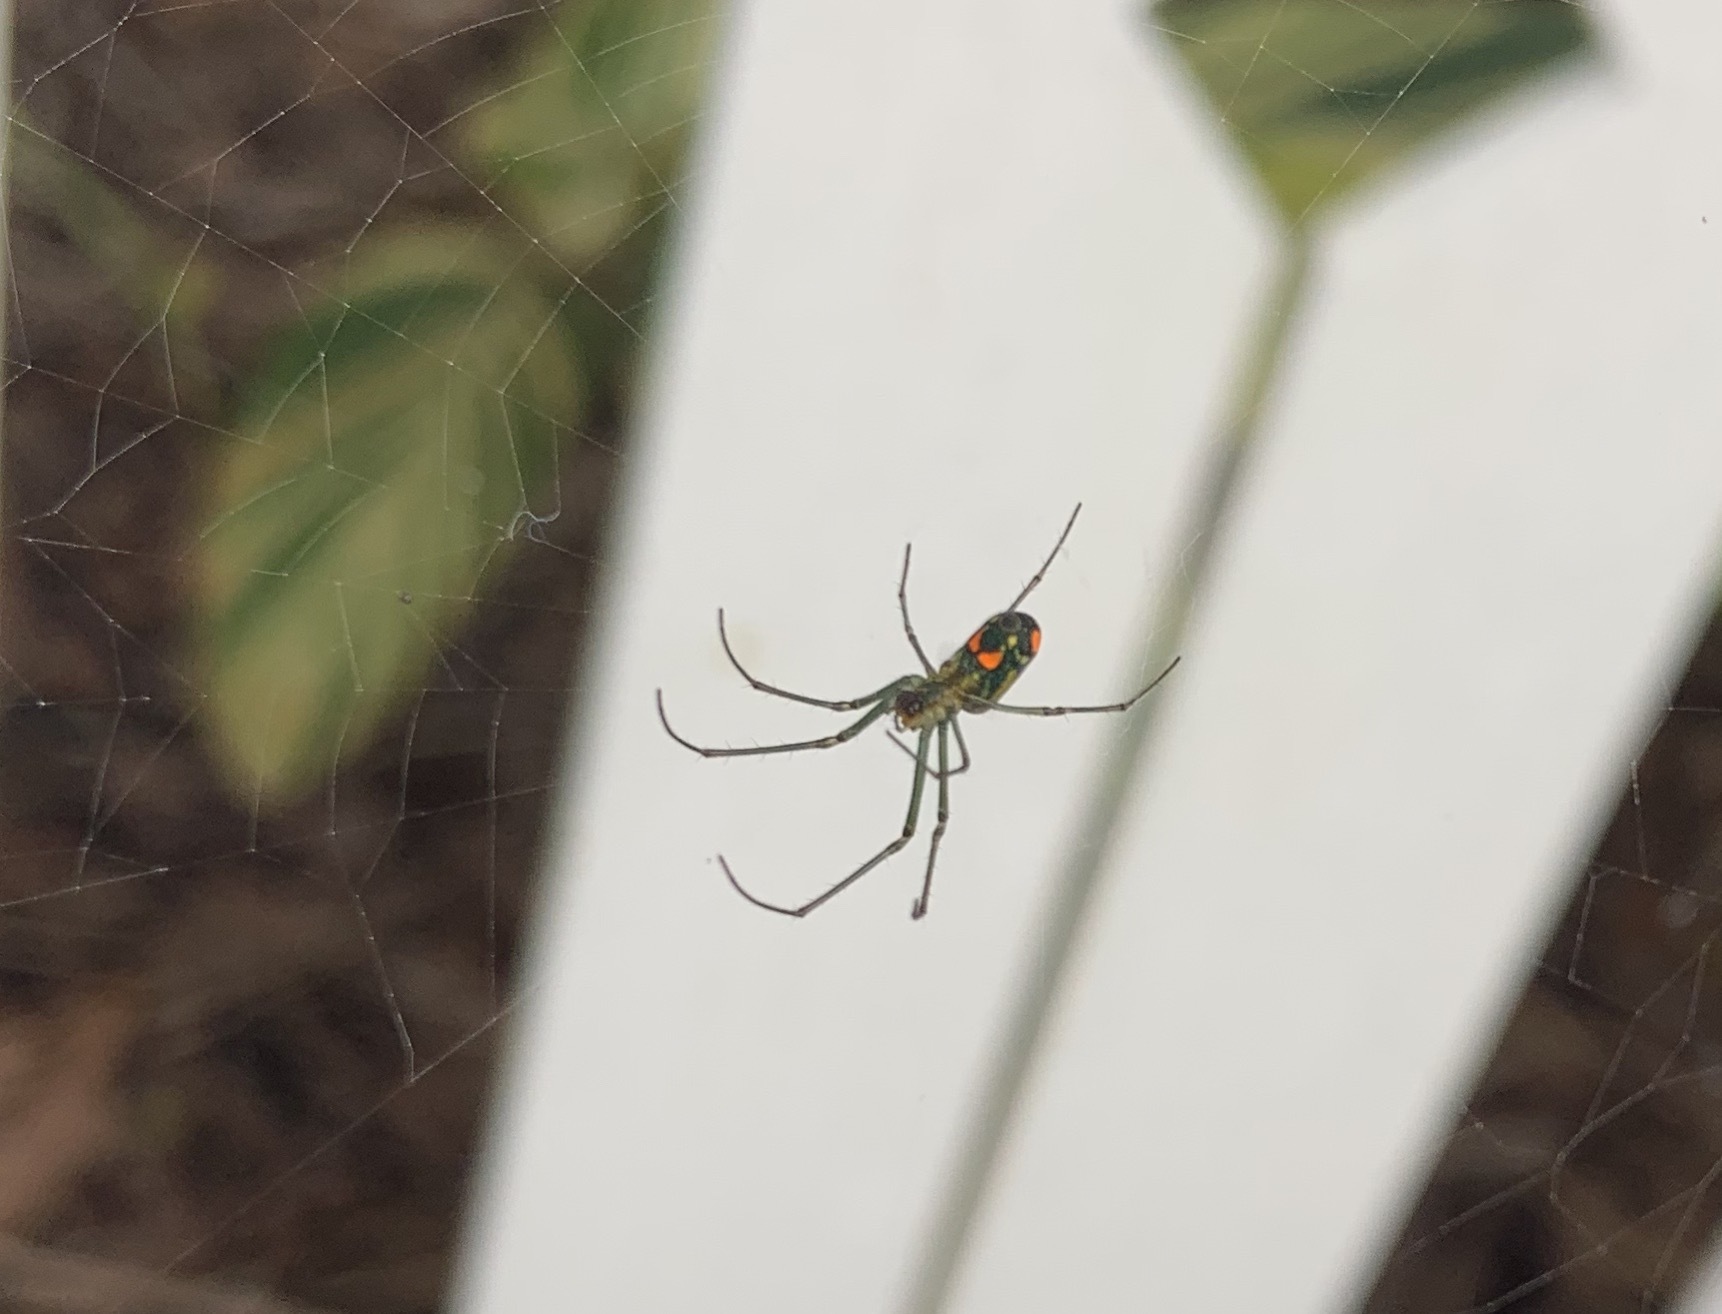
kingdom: Animalia
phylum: Arthropoda
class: Arachnida
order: Araneae
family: Tetragnathidae
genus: Leucauge
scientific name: Leucauge argyrobapta
